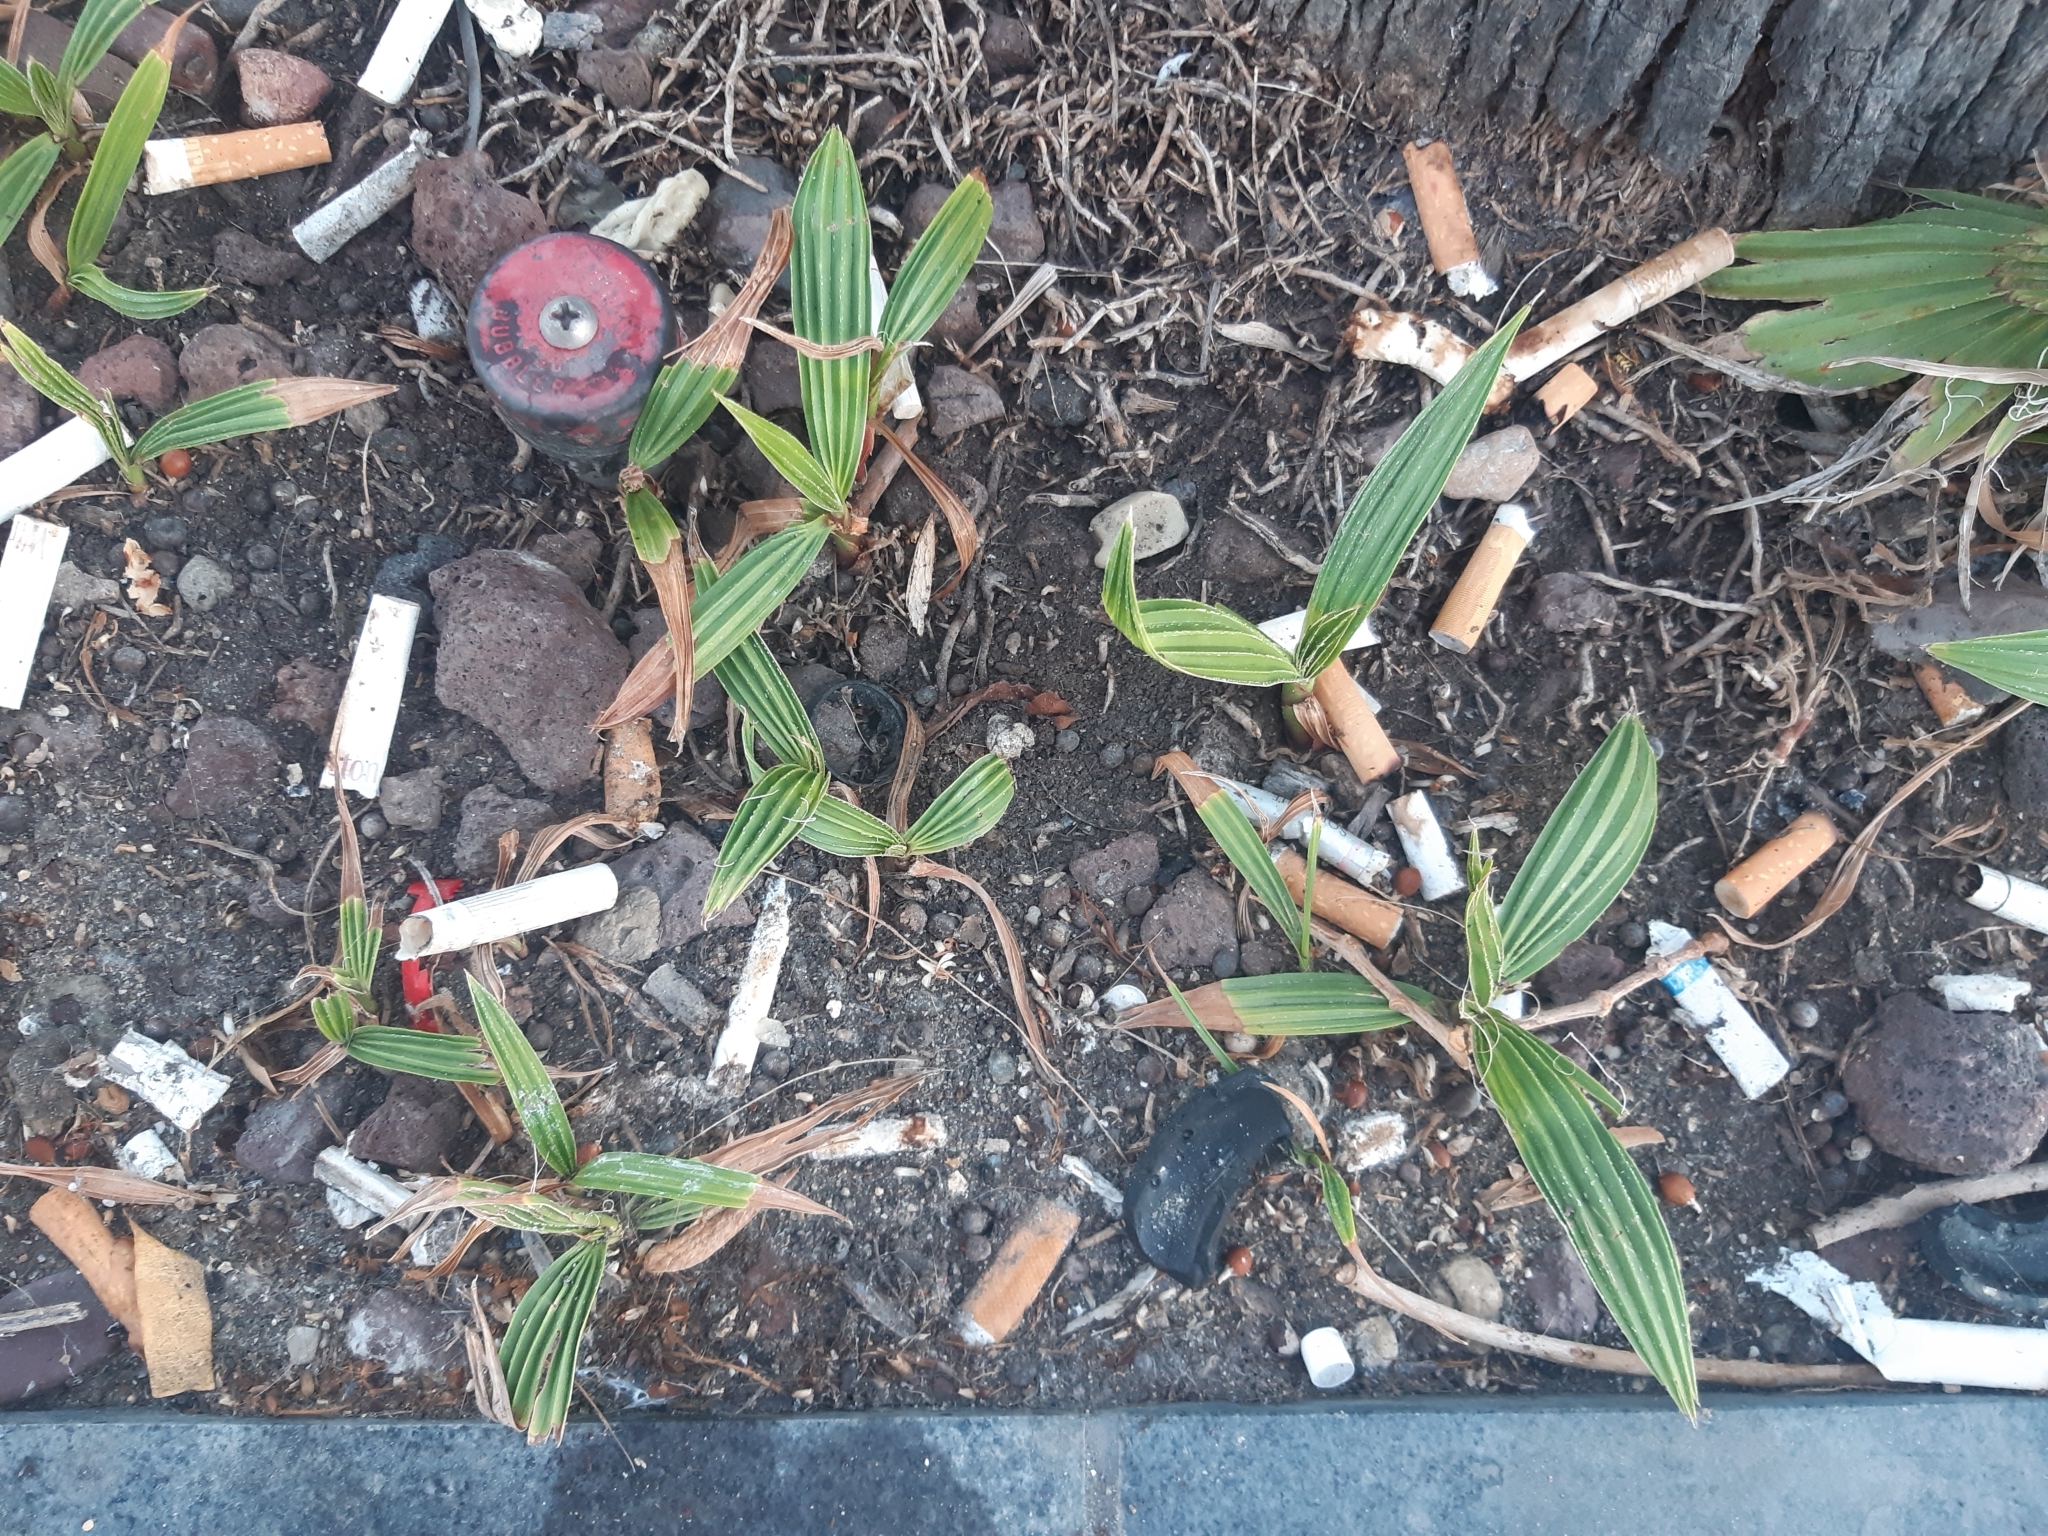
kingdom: Plantae
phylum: Tracheophyta
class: Liliopsida
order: Arecales
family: Arecaceae
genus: Washingtonia
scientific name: Washingtonia robusta
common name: Mexican fan palm
